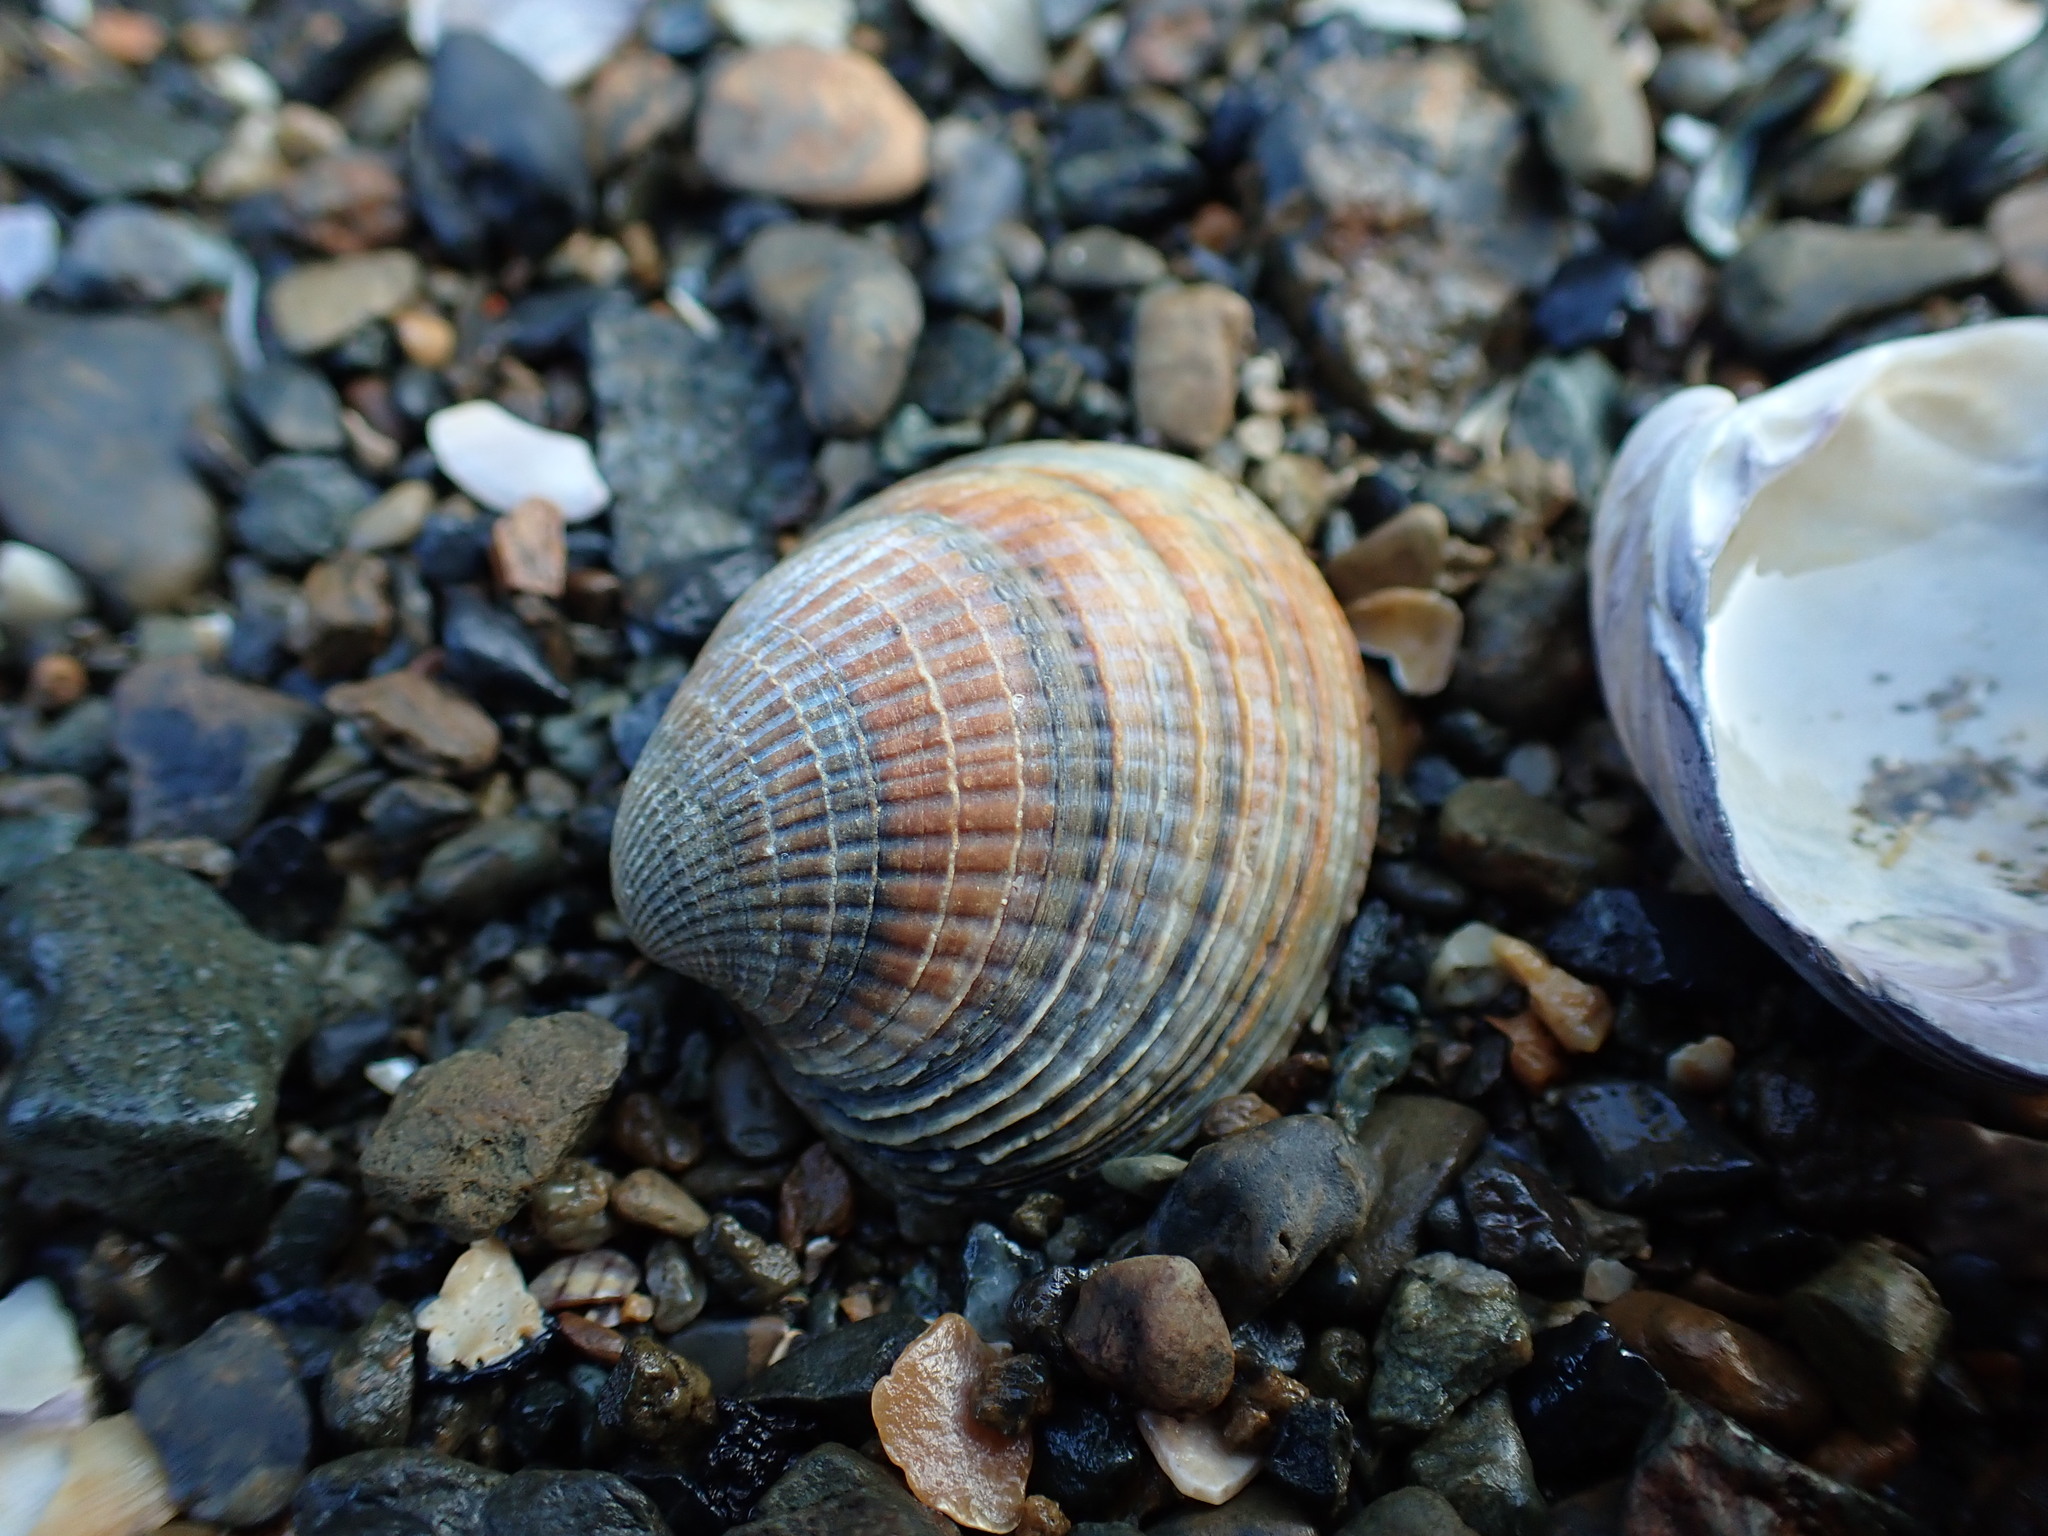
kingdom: Animalia
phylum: Mollusca
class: Bivalvia
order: Venerida
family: Veneridae
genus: Austrovenus
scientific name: Austrovenus stutchburyi
